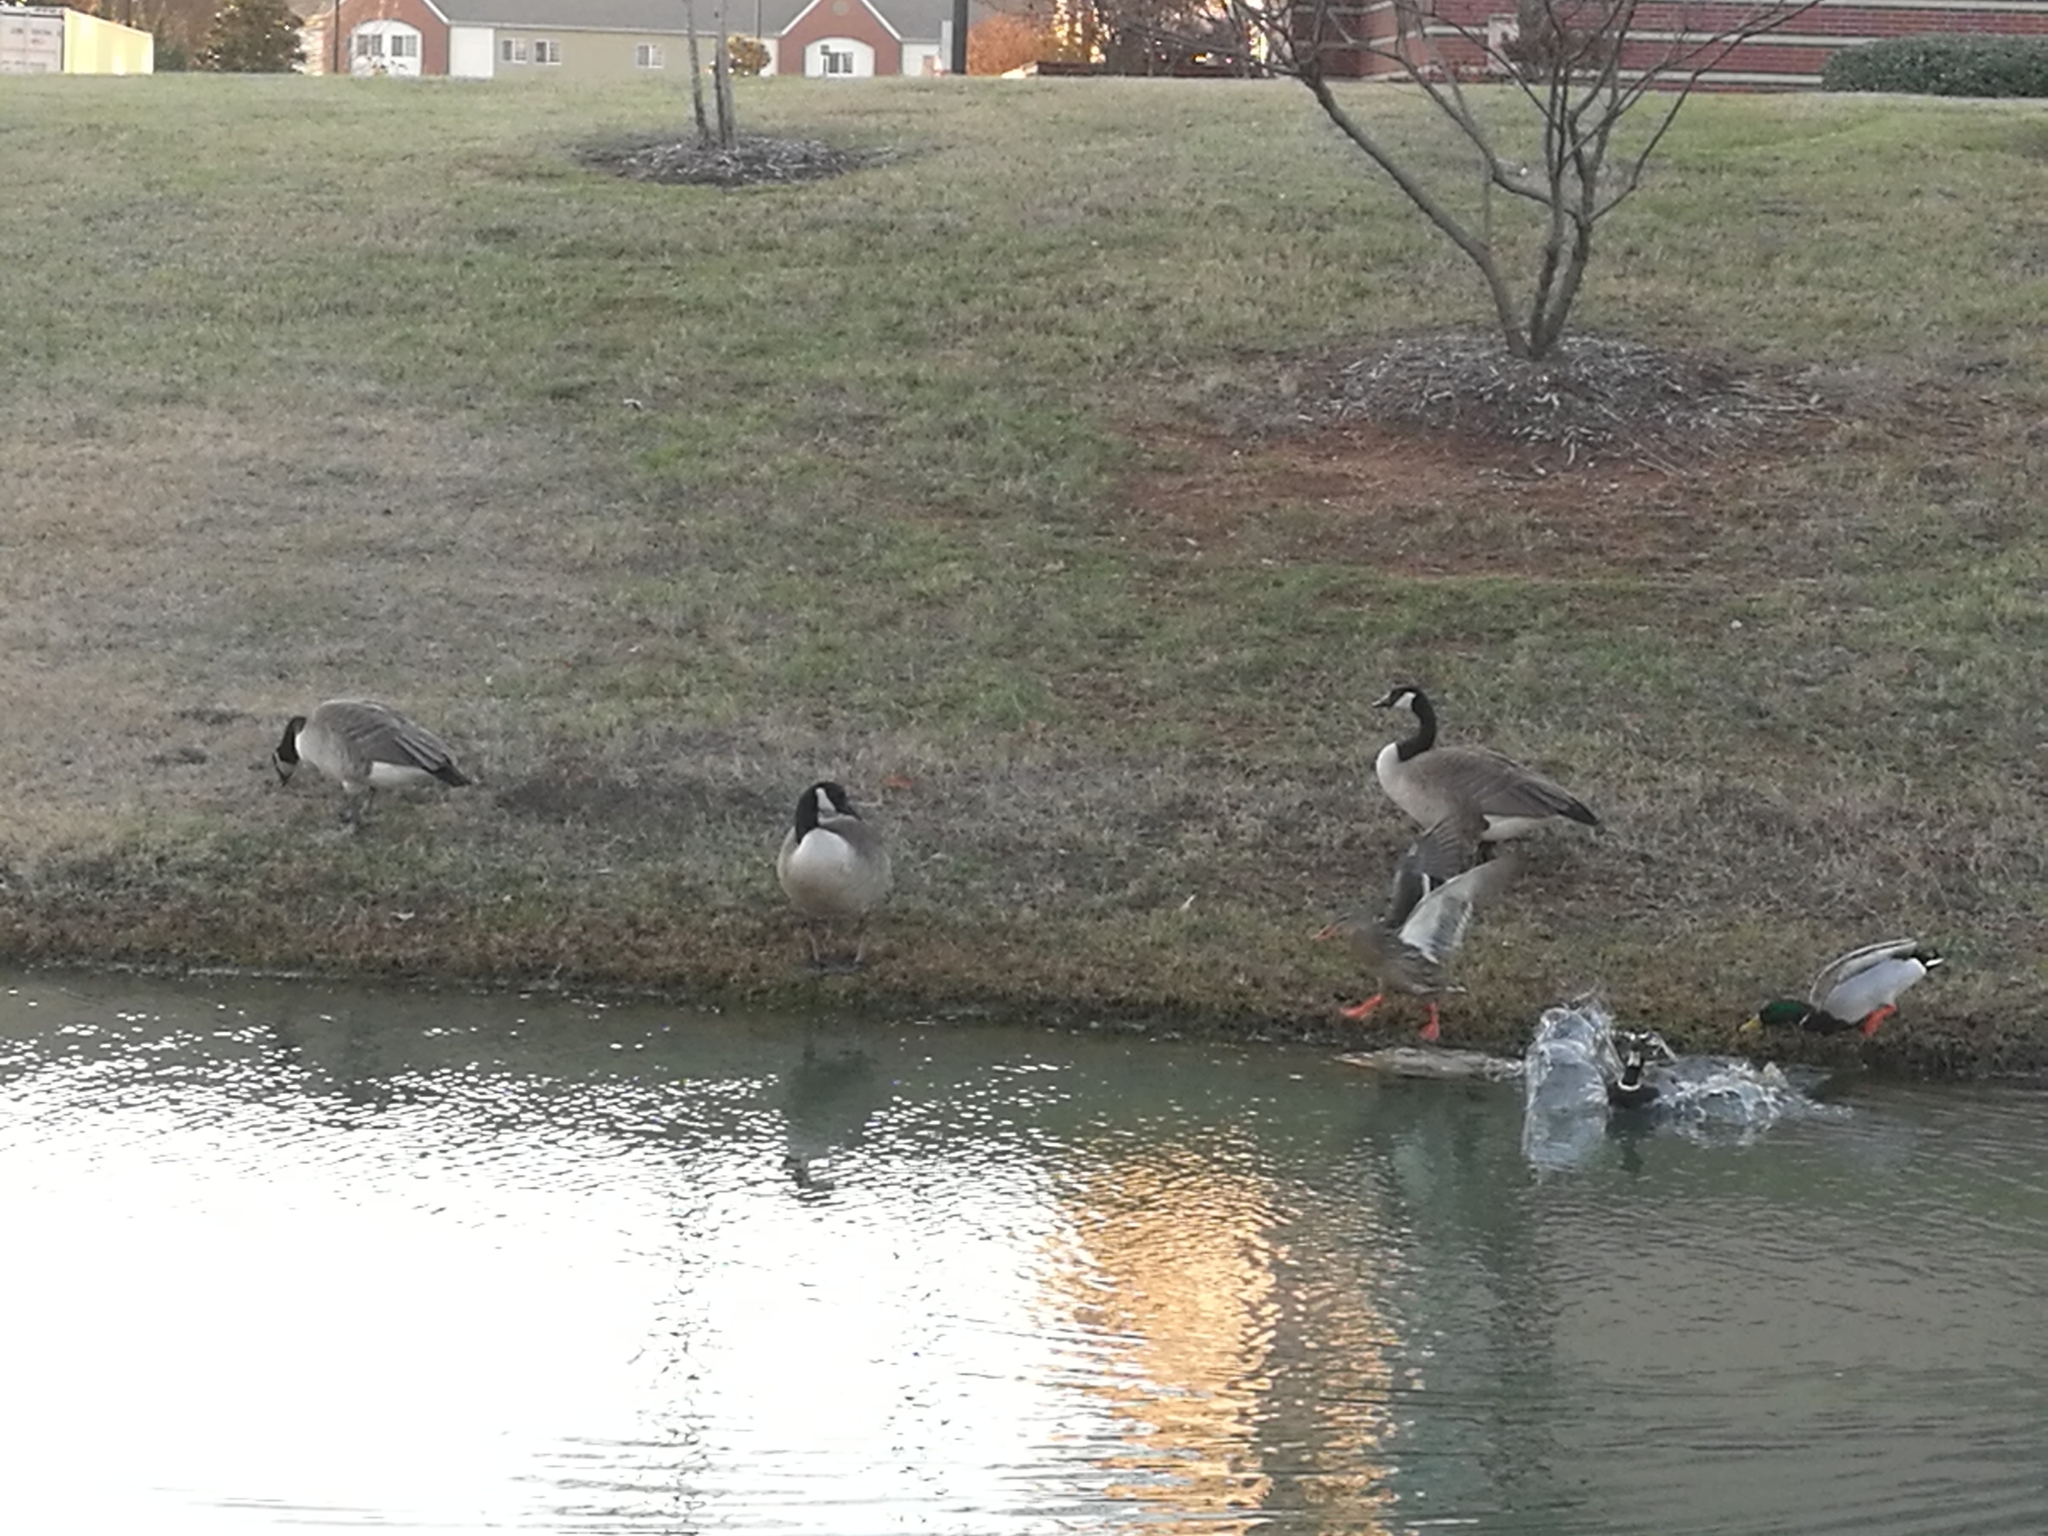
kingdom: Animalia
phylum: Chordata
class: Aves
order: Anseriformes
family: Anatidae
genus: Branta
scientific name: Branta canadensis
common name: Canada goose
